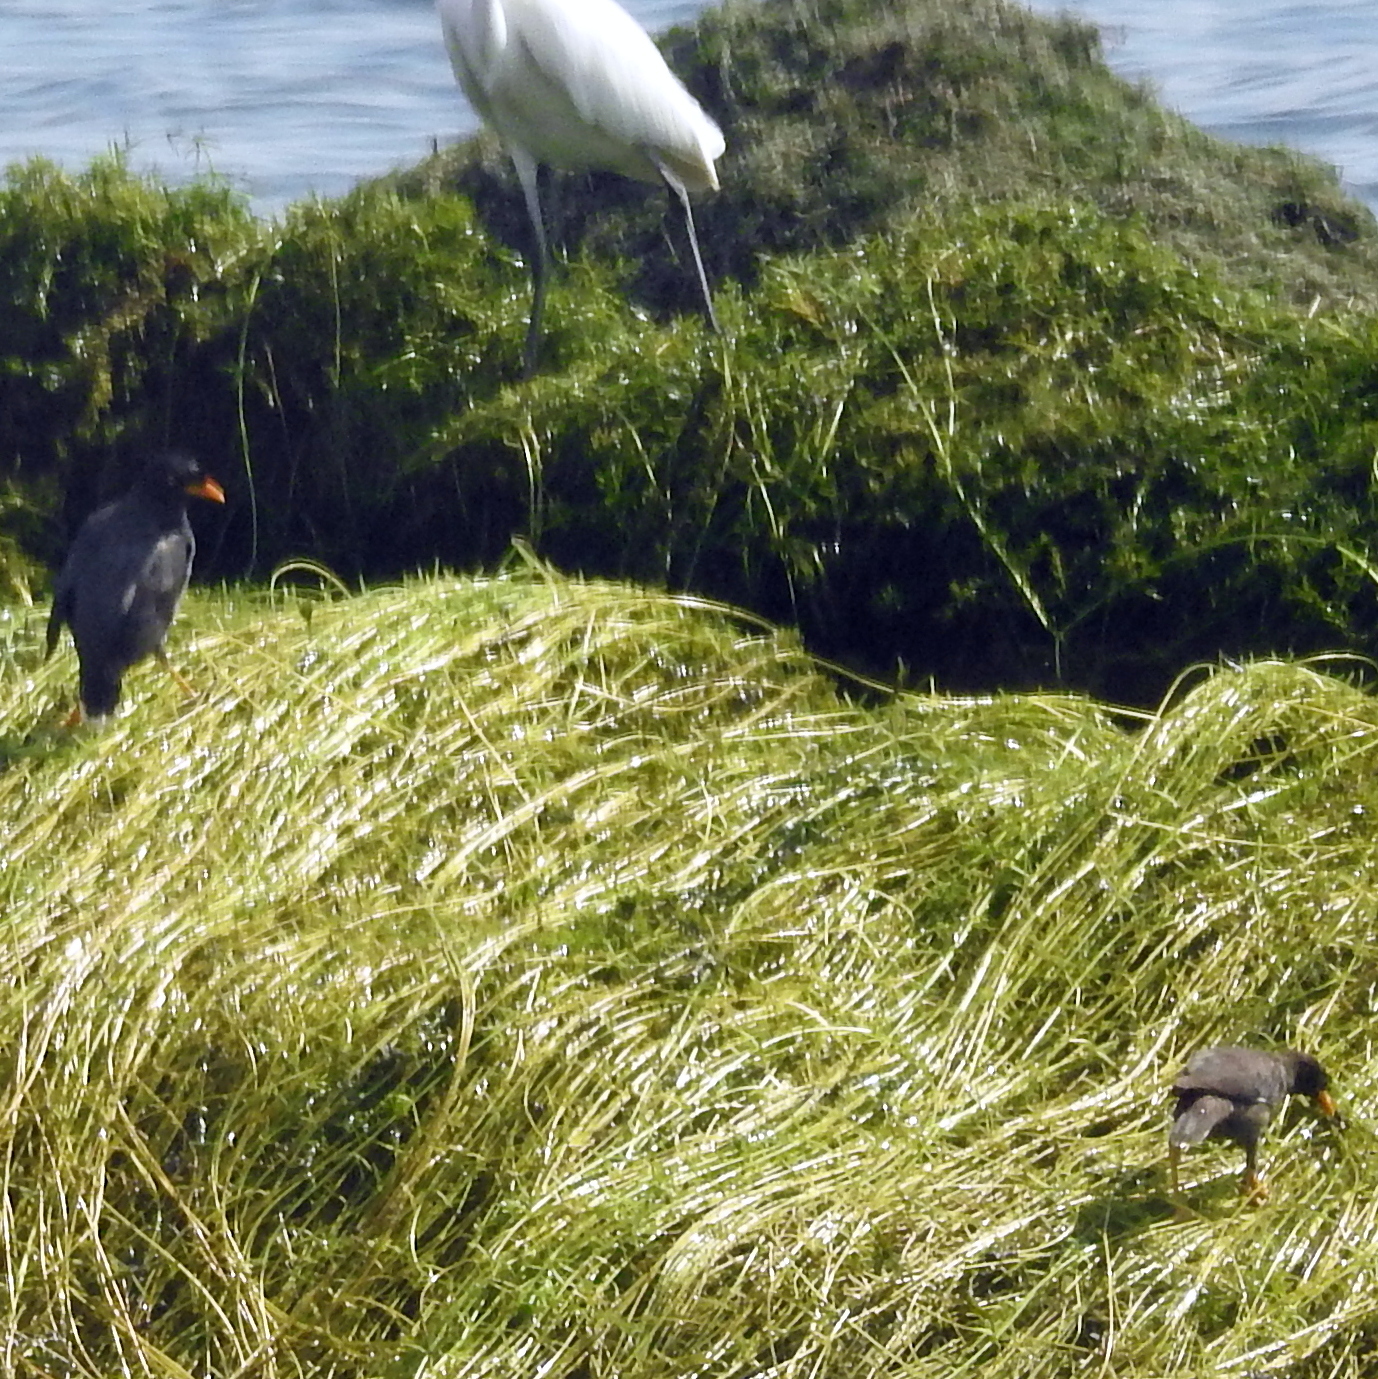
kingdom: Animalia
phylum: Chordata
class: Aves
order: Passeriformes
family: Sturnidae
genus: Acridotheres
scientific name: Acridotheres javanicus
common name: Javan myna
